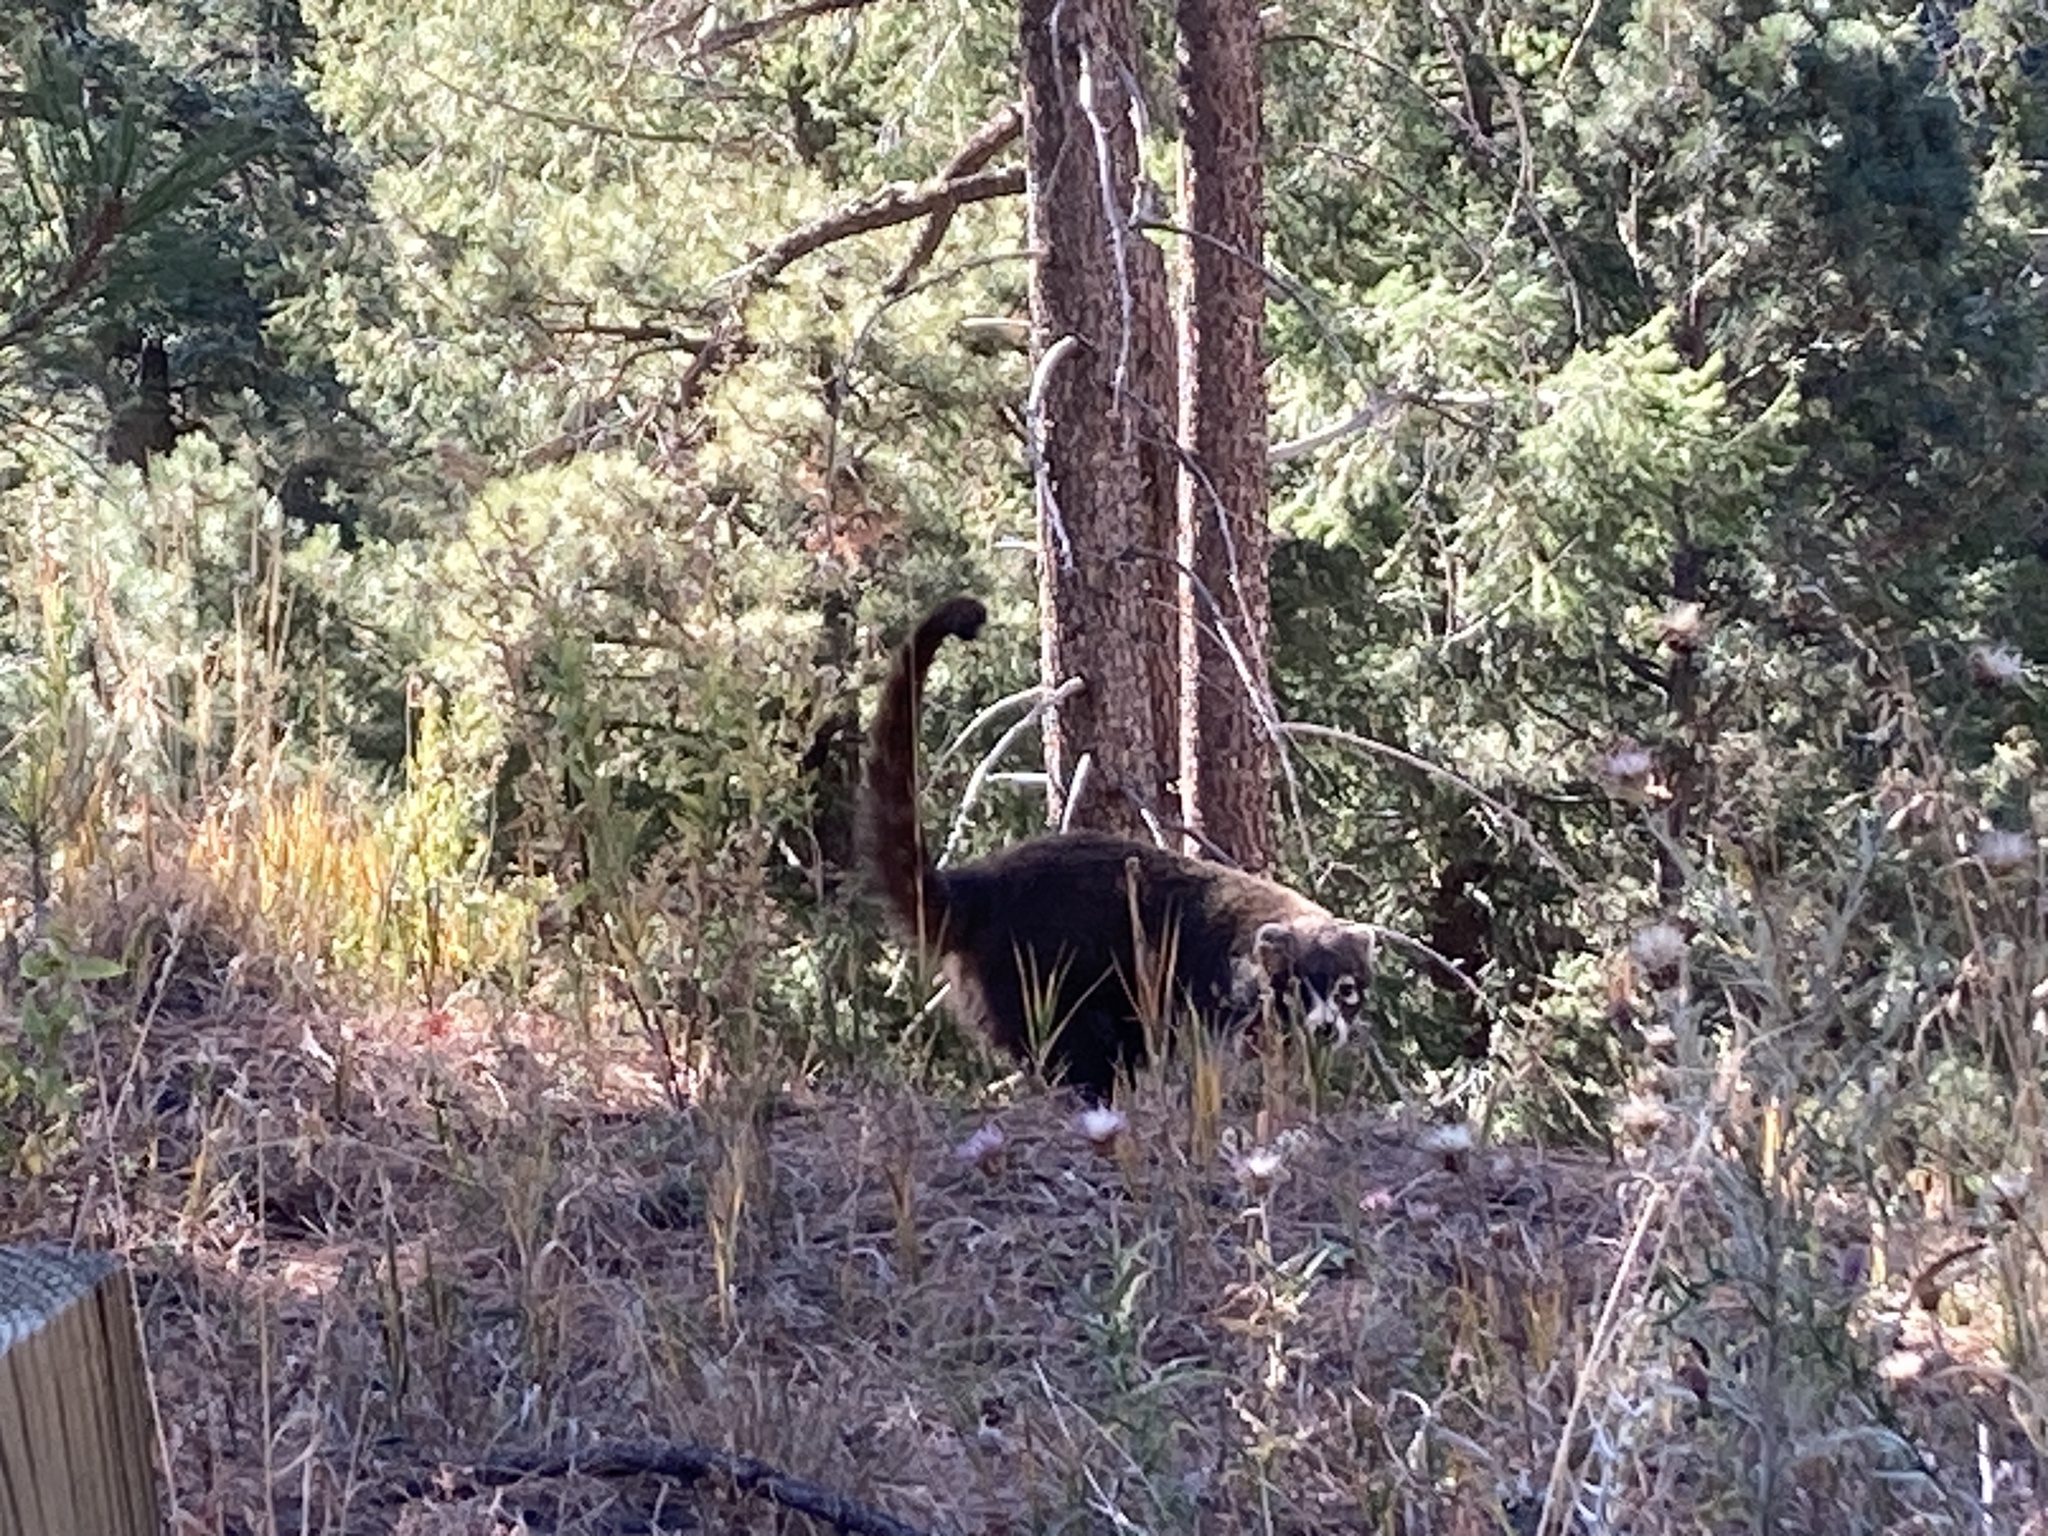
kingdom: Animalia
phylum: Chordata
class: Mammalia
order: Carnivora
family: Procyonidae
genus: Nasua
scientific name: Nasua narica
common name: White-nosed coati
